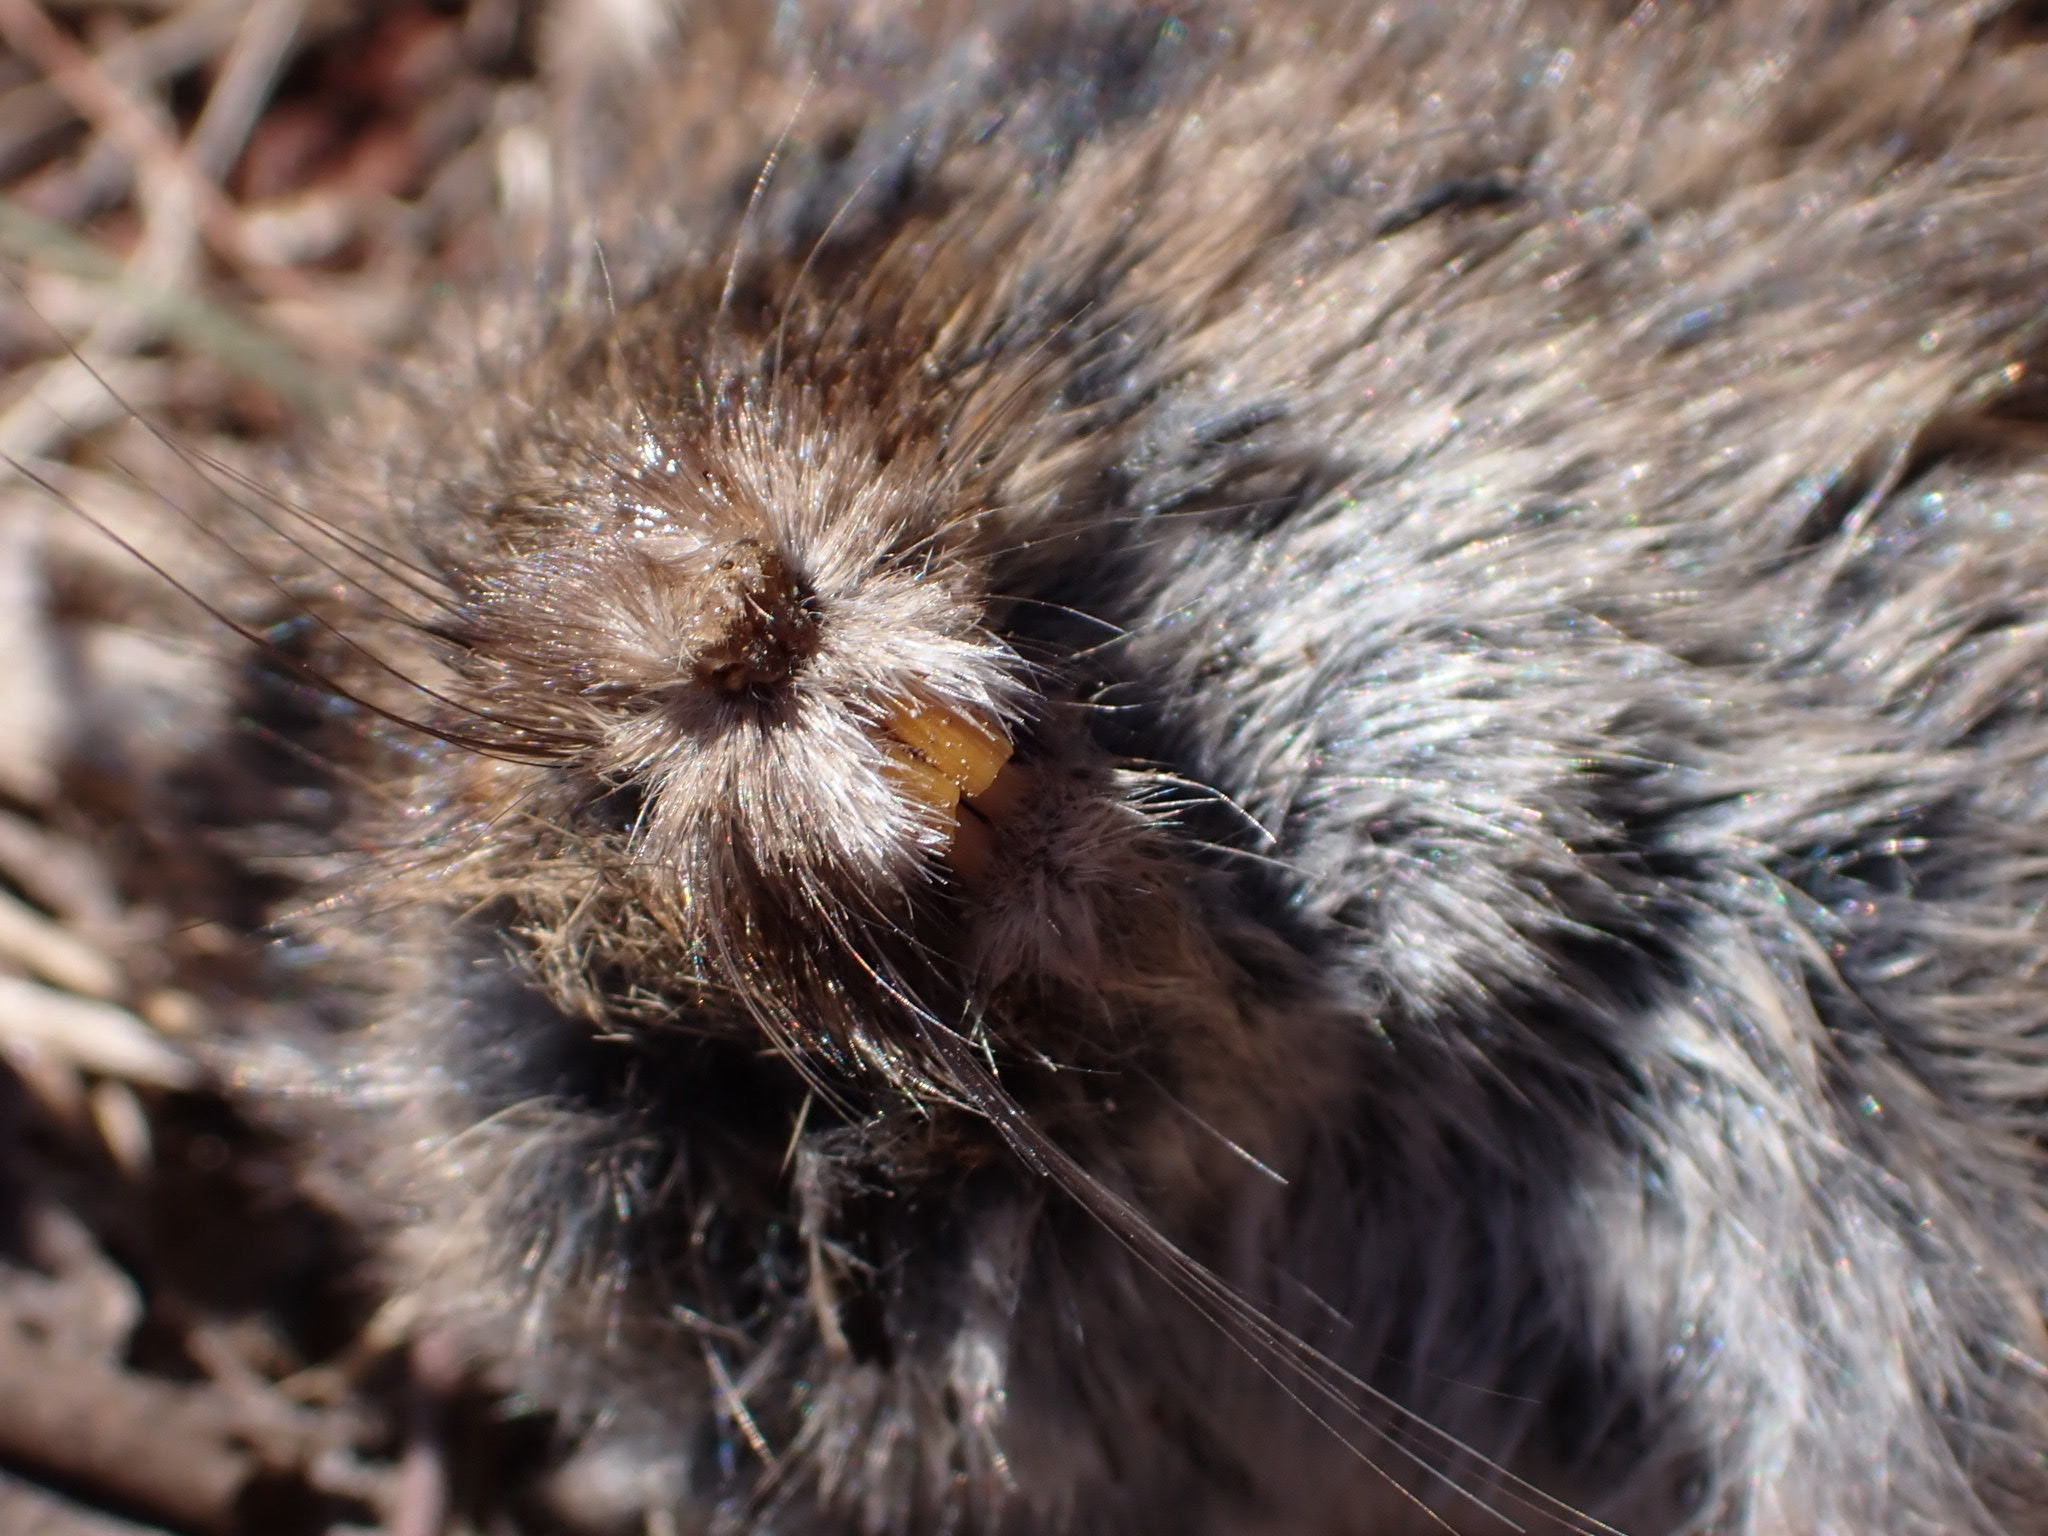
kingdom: Animalia
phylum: Chordata
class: Mammalia
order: Rodentia
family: Cricetidae
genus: Microtus
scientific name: Microtus pennsylvanicus
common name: Meadow vole
